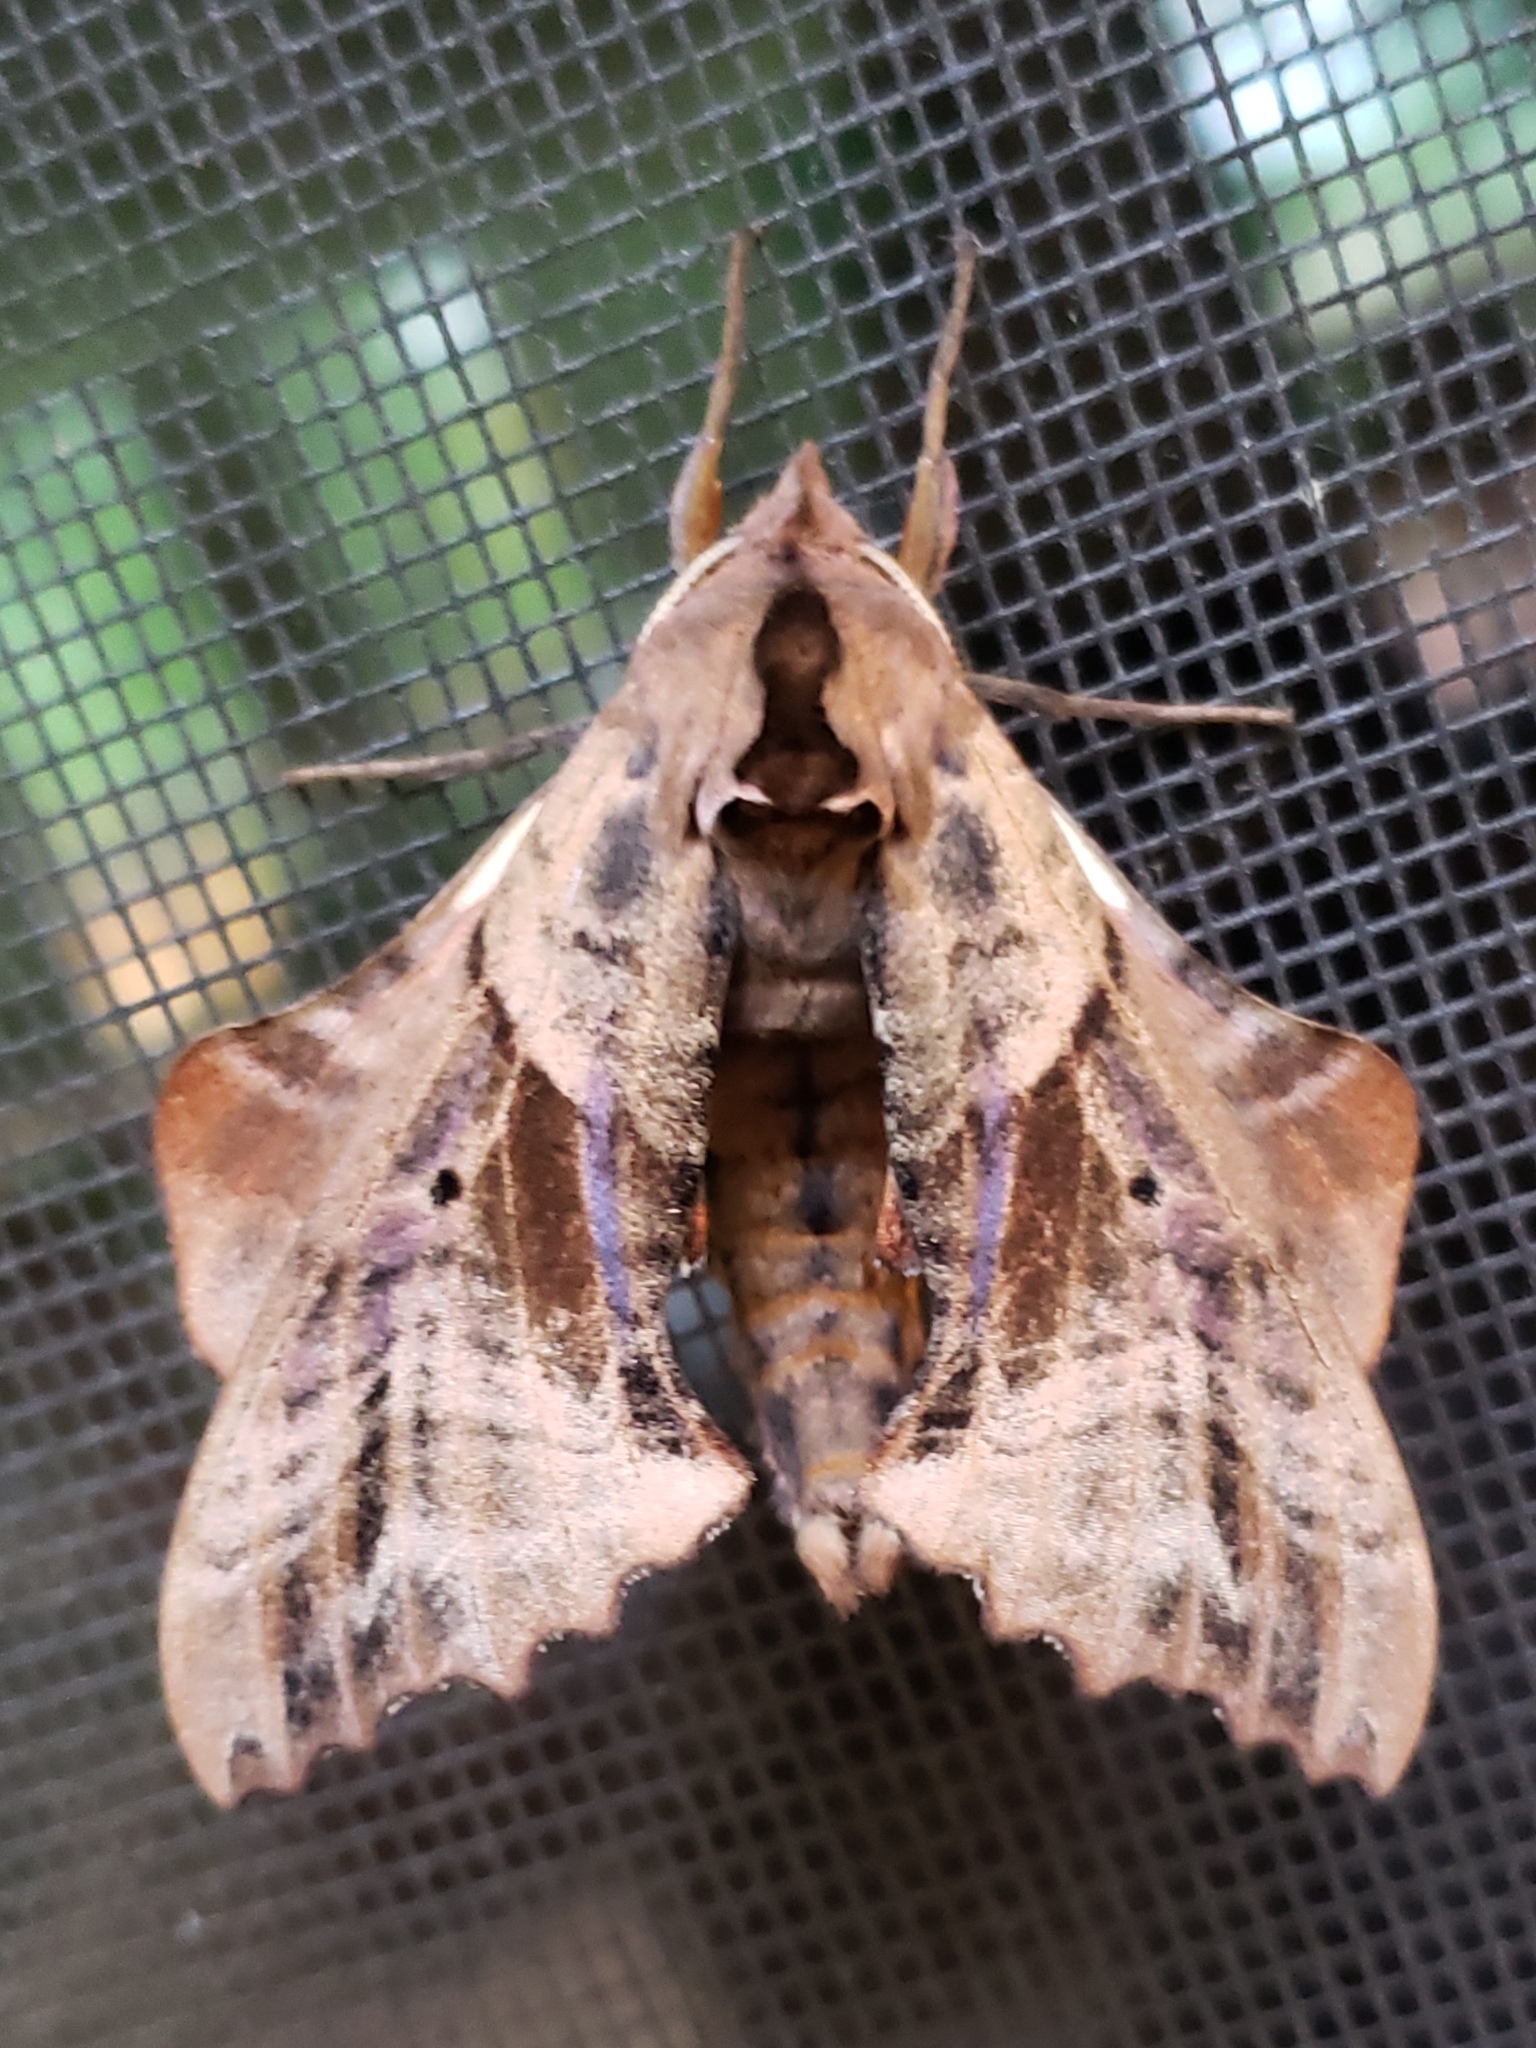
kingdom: Animalia
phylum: Arthropoda
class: Insecta
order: Lepidoptera
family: Sphingidae
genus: Paonias
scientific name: Paonias excaecata
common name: Blind-eyed sphinx
